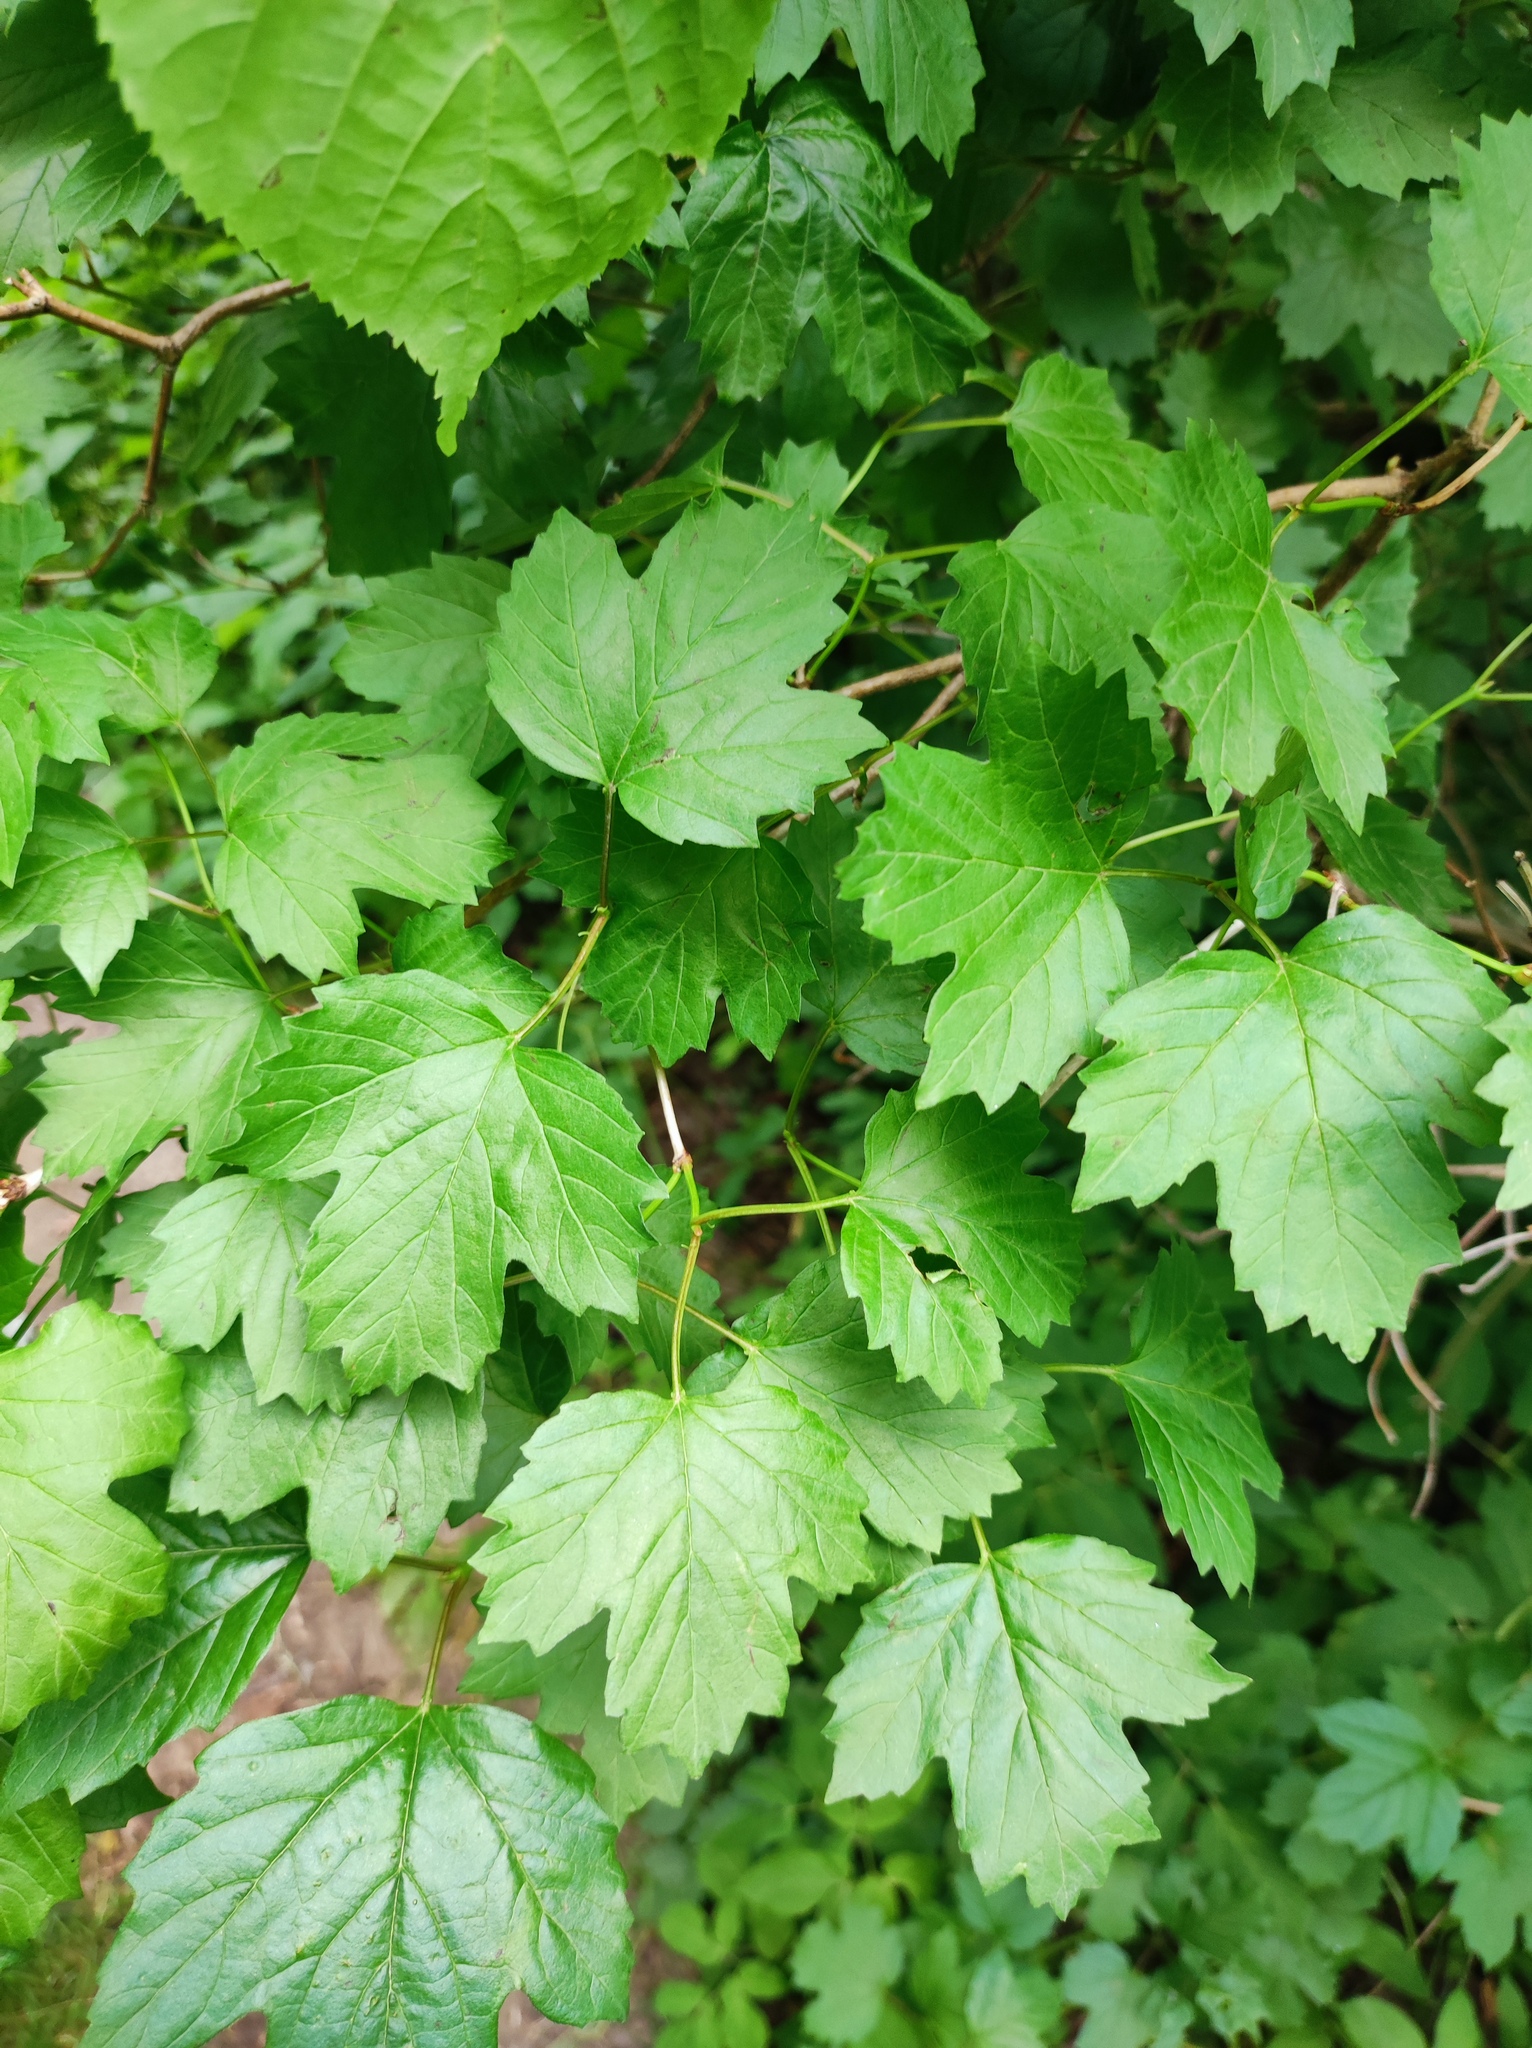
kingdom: Plantae
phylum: Tracheophyta
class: Magnoliopsida
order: Dipsacales
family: Viburnaceae
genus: Viburnum
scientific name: Viburnum opulus
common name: Guelder-rose
